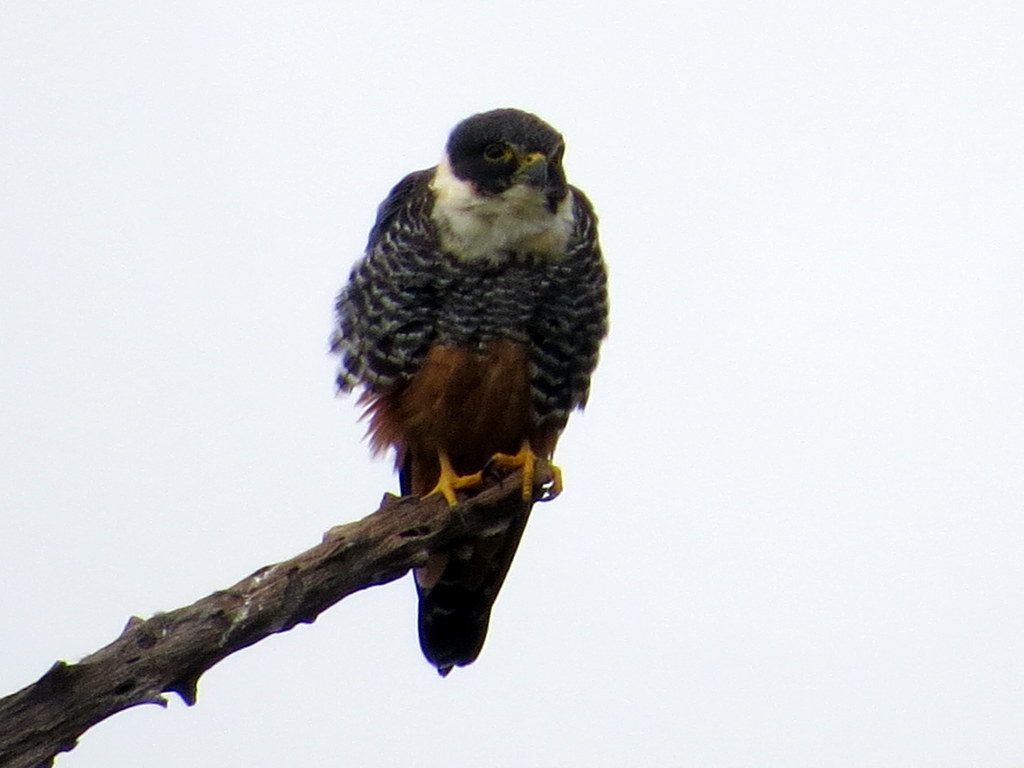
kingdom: Animalia
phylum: Chordata
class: Aves
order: Falconiformes
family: Falconidae
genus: Falco
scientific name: Falco rufigularis
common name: Bat falcon
